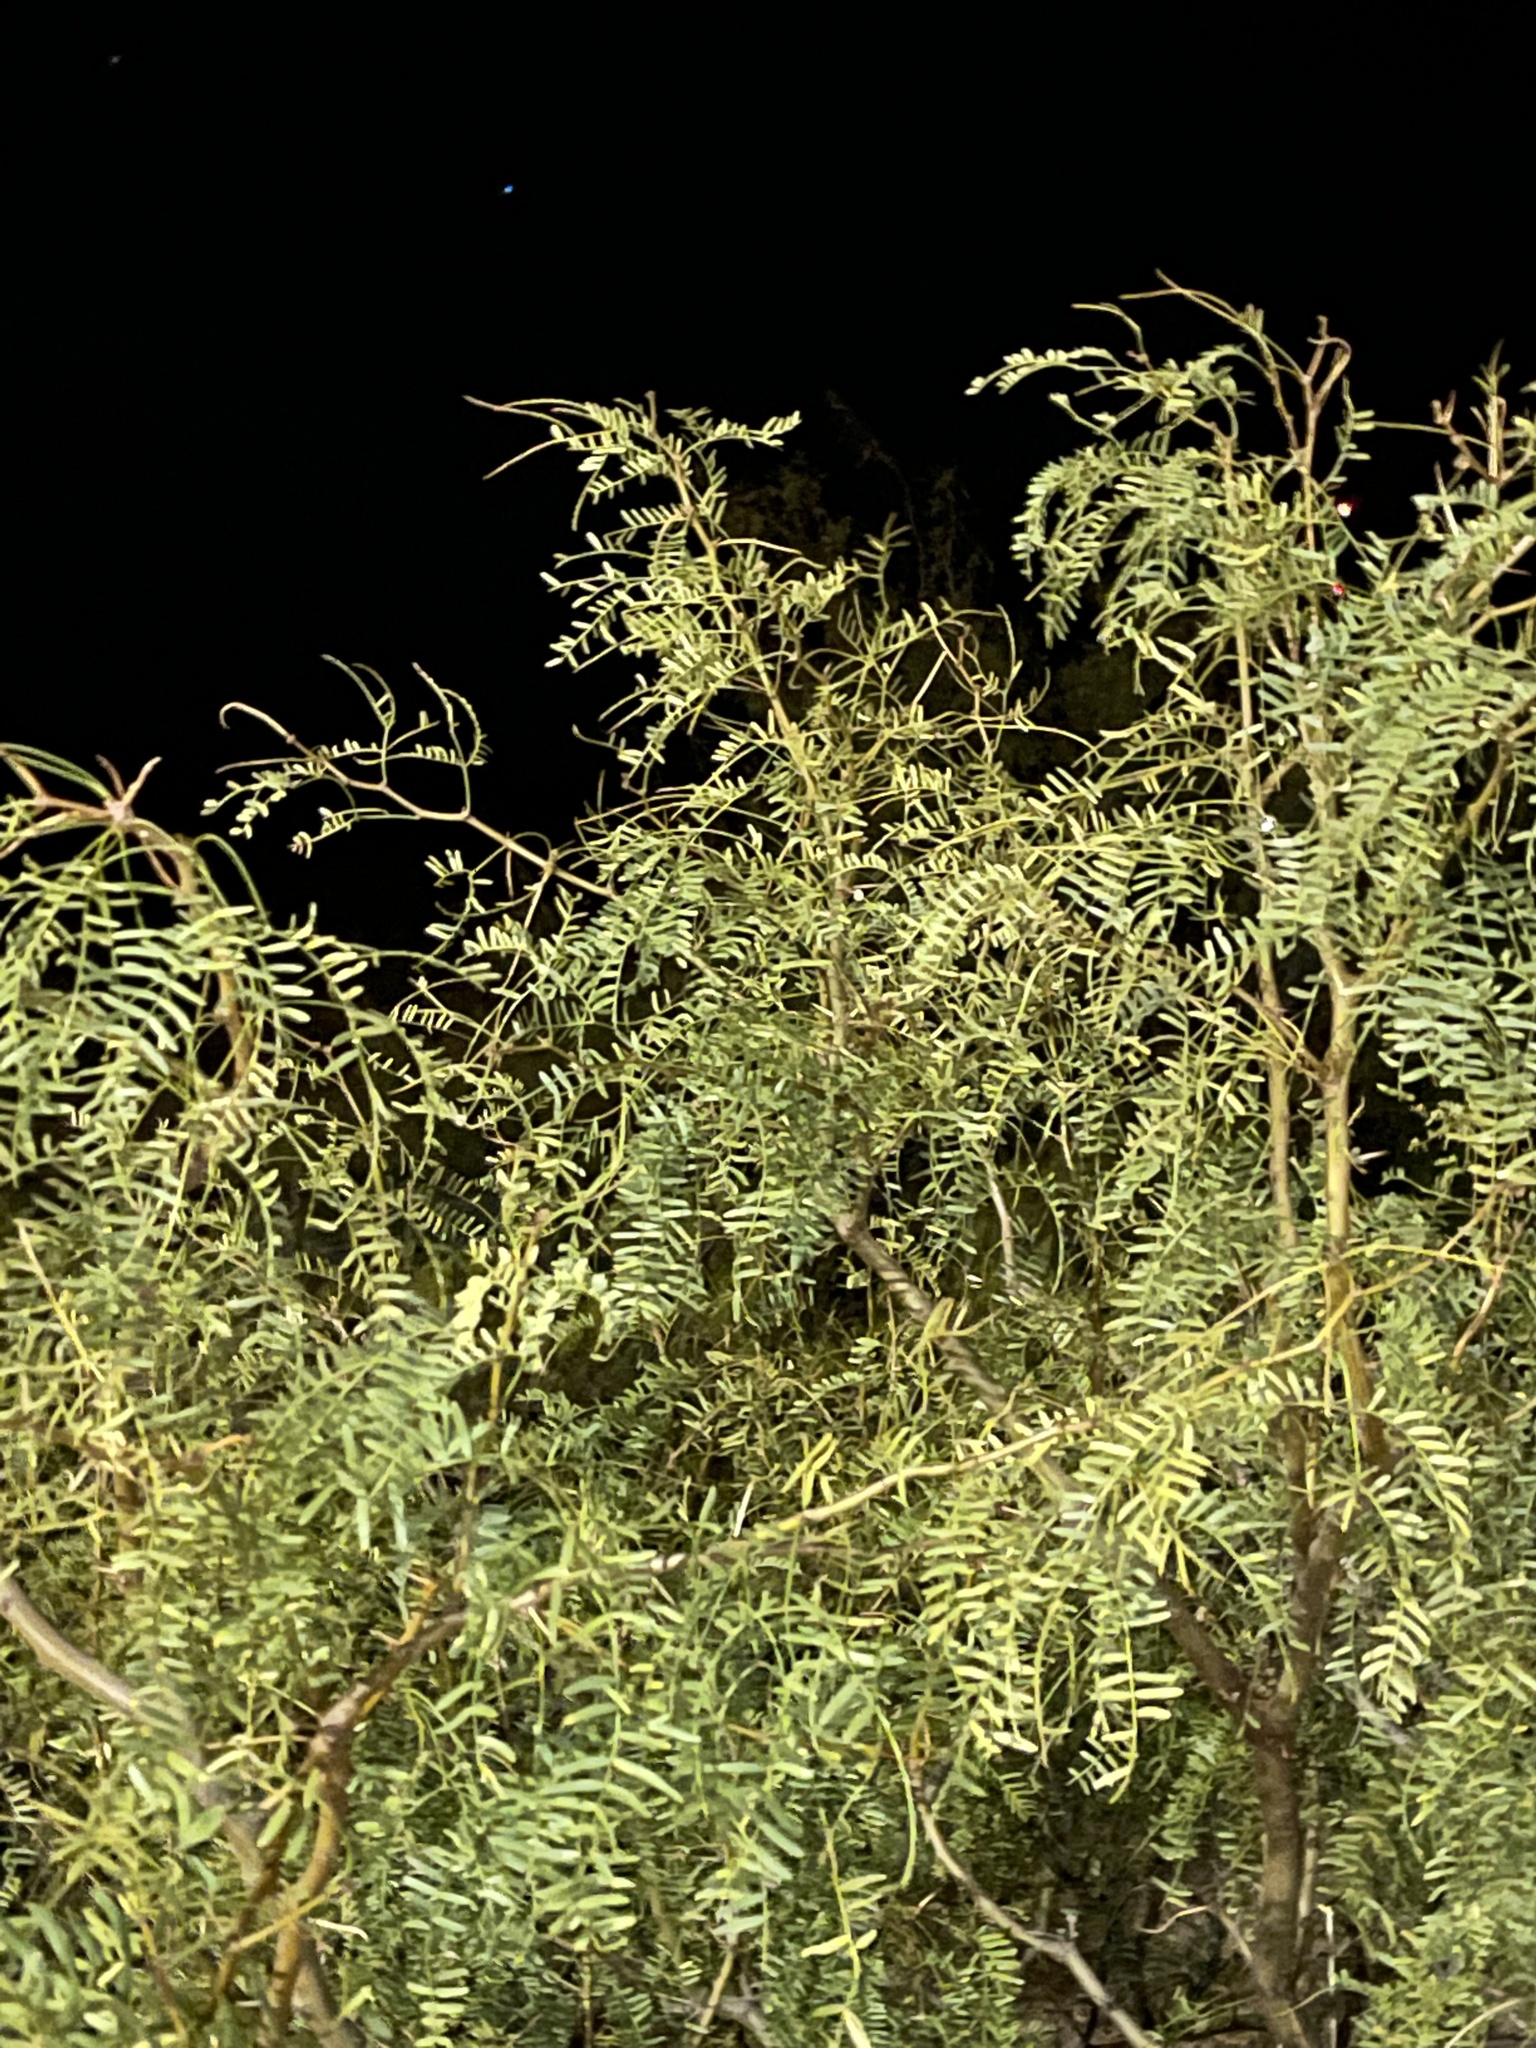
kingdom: Plantae
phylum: Tracheophyta
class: Magnoliopsida
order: Fabales
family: Fabaceae
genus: Prosopis
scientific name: Prosopis glandulosa
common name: Honey mesquite
